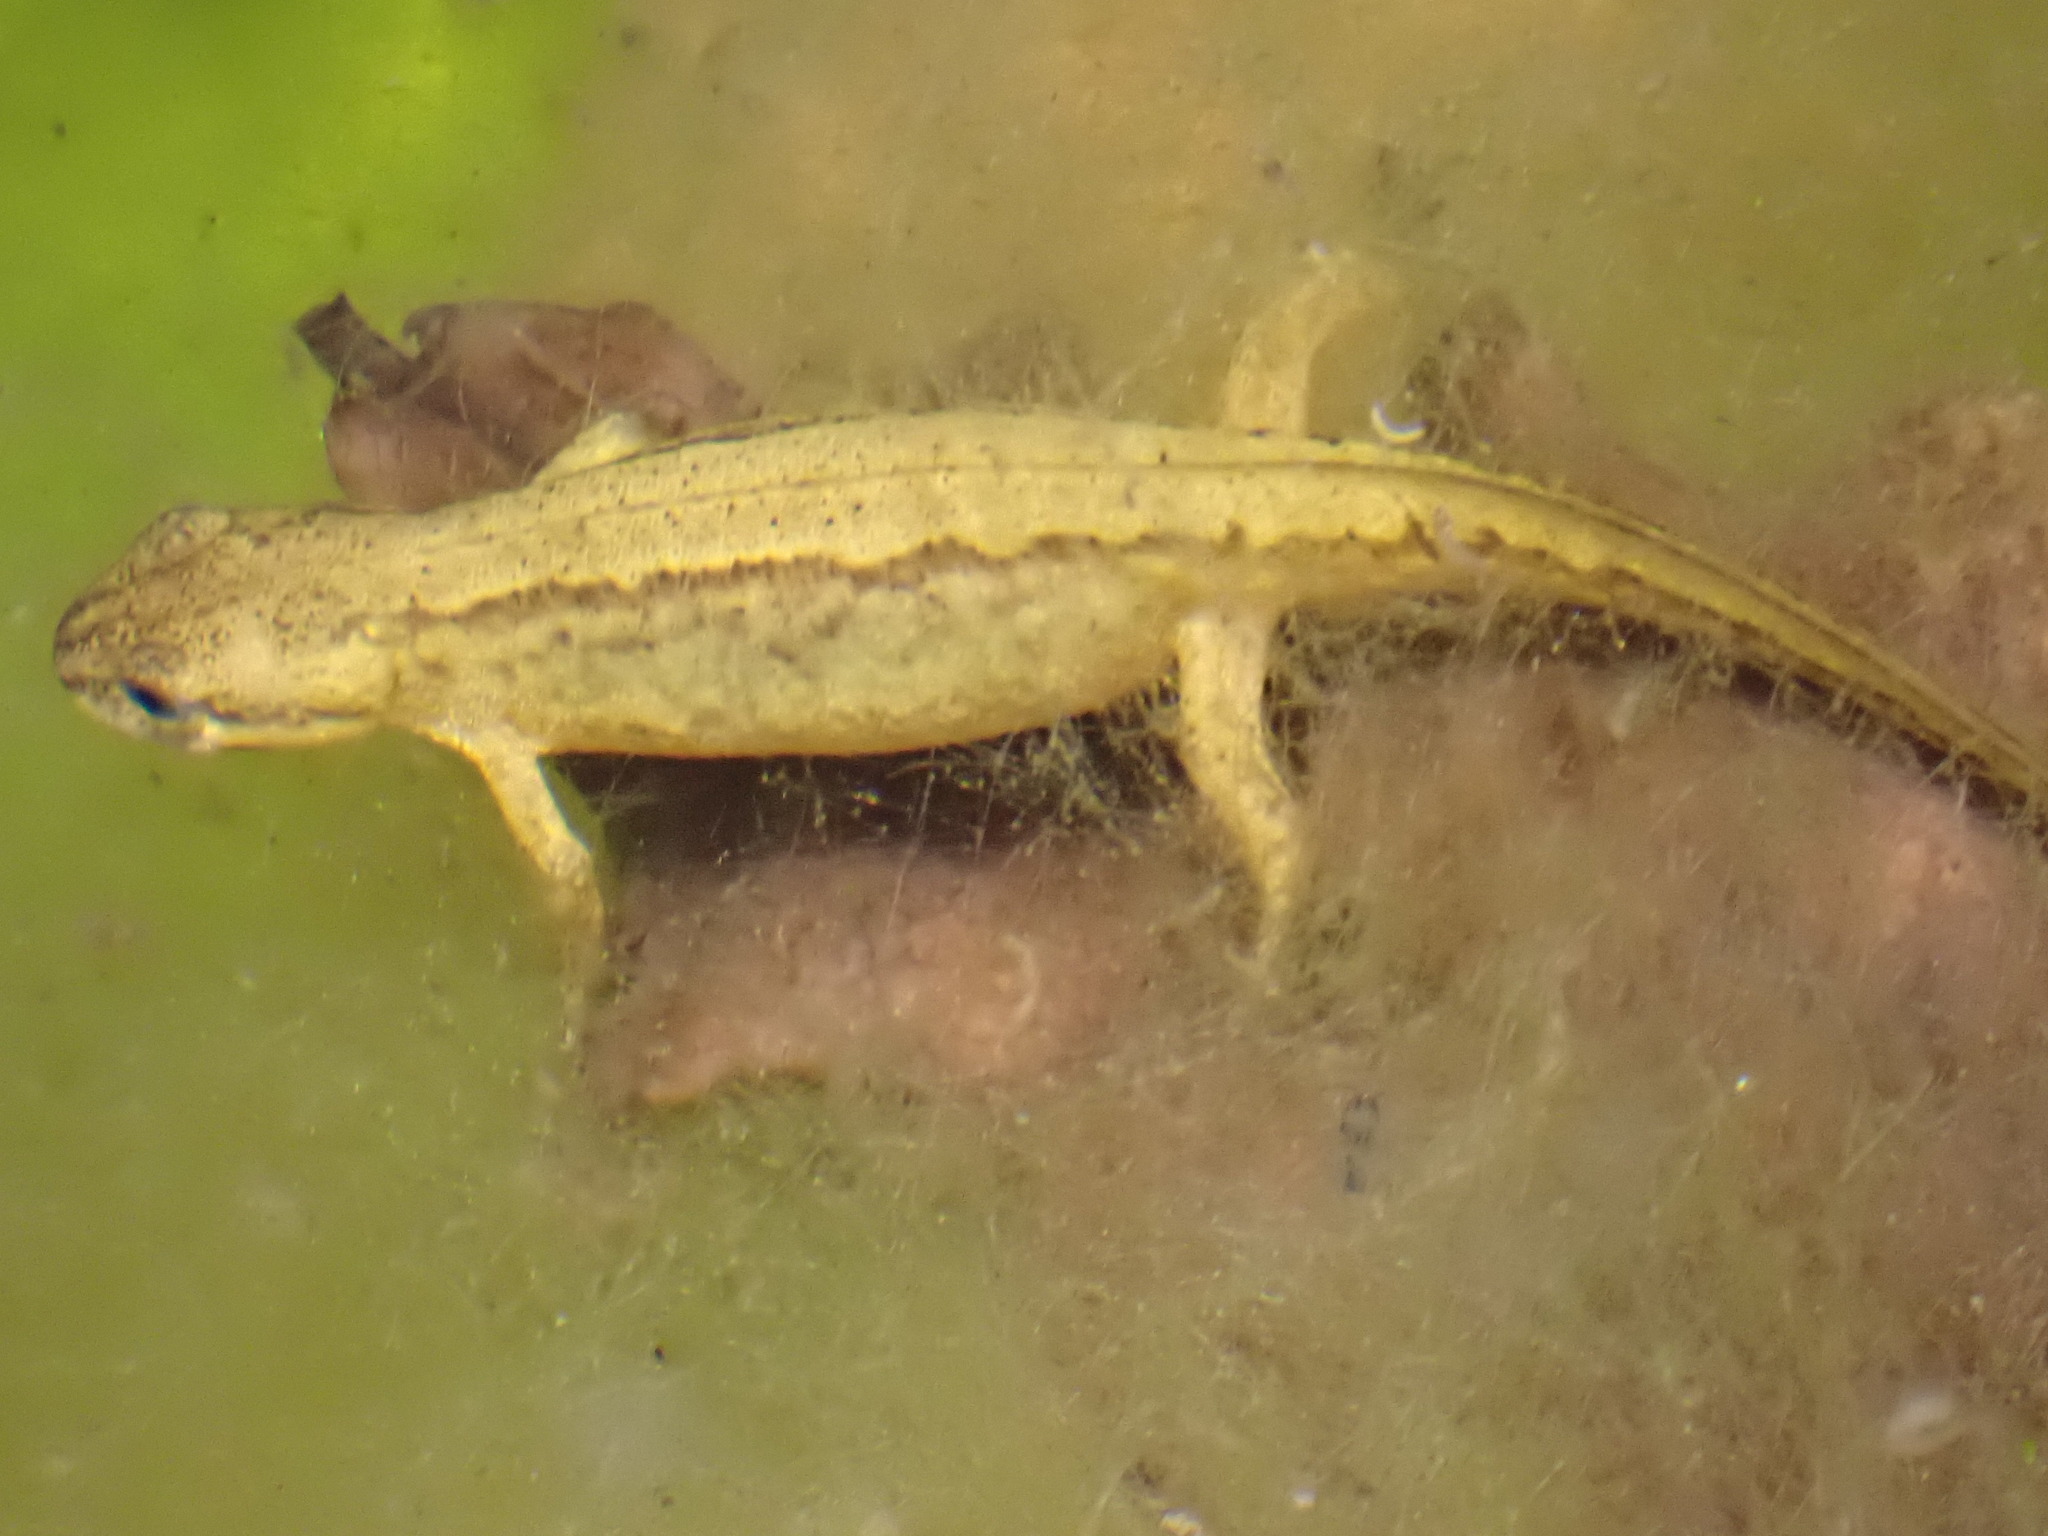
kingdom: Animalia
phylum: Chordata
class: Amphibia
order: Caudata
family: Salamandridae
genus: Lissotriton
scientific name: Lissotriton vulgaris
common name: Smooth newt
